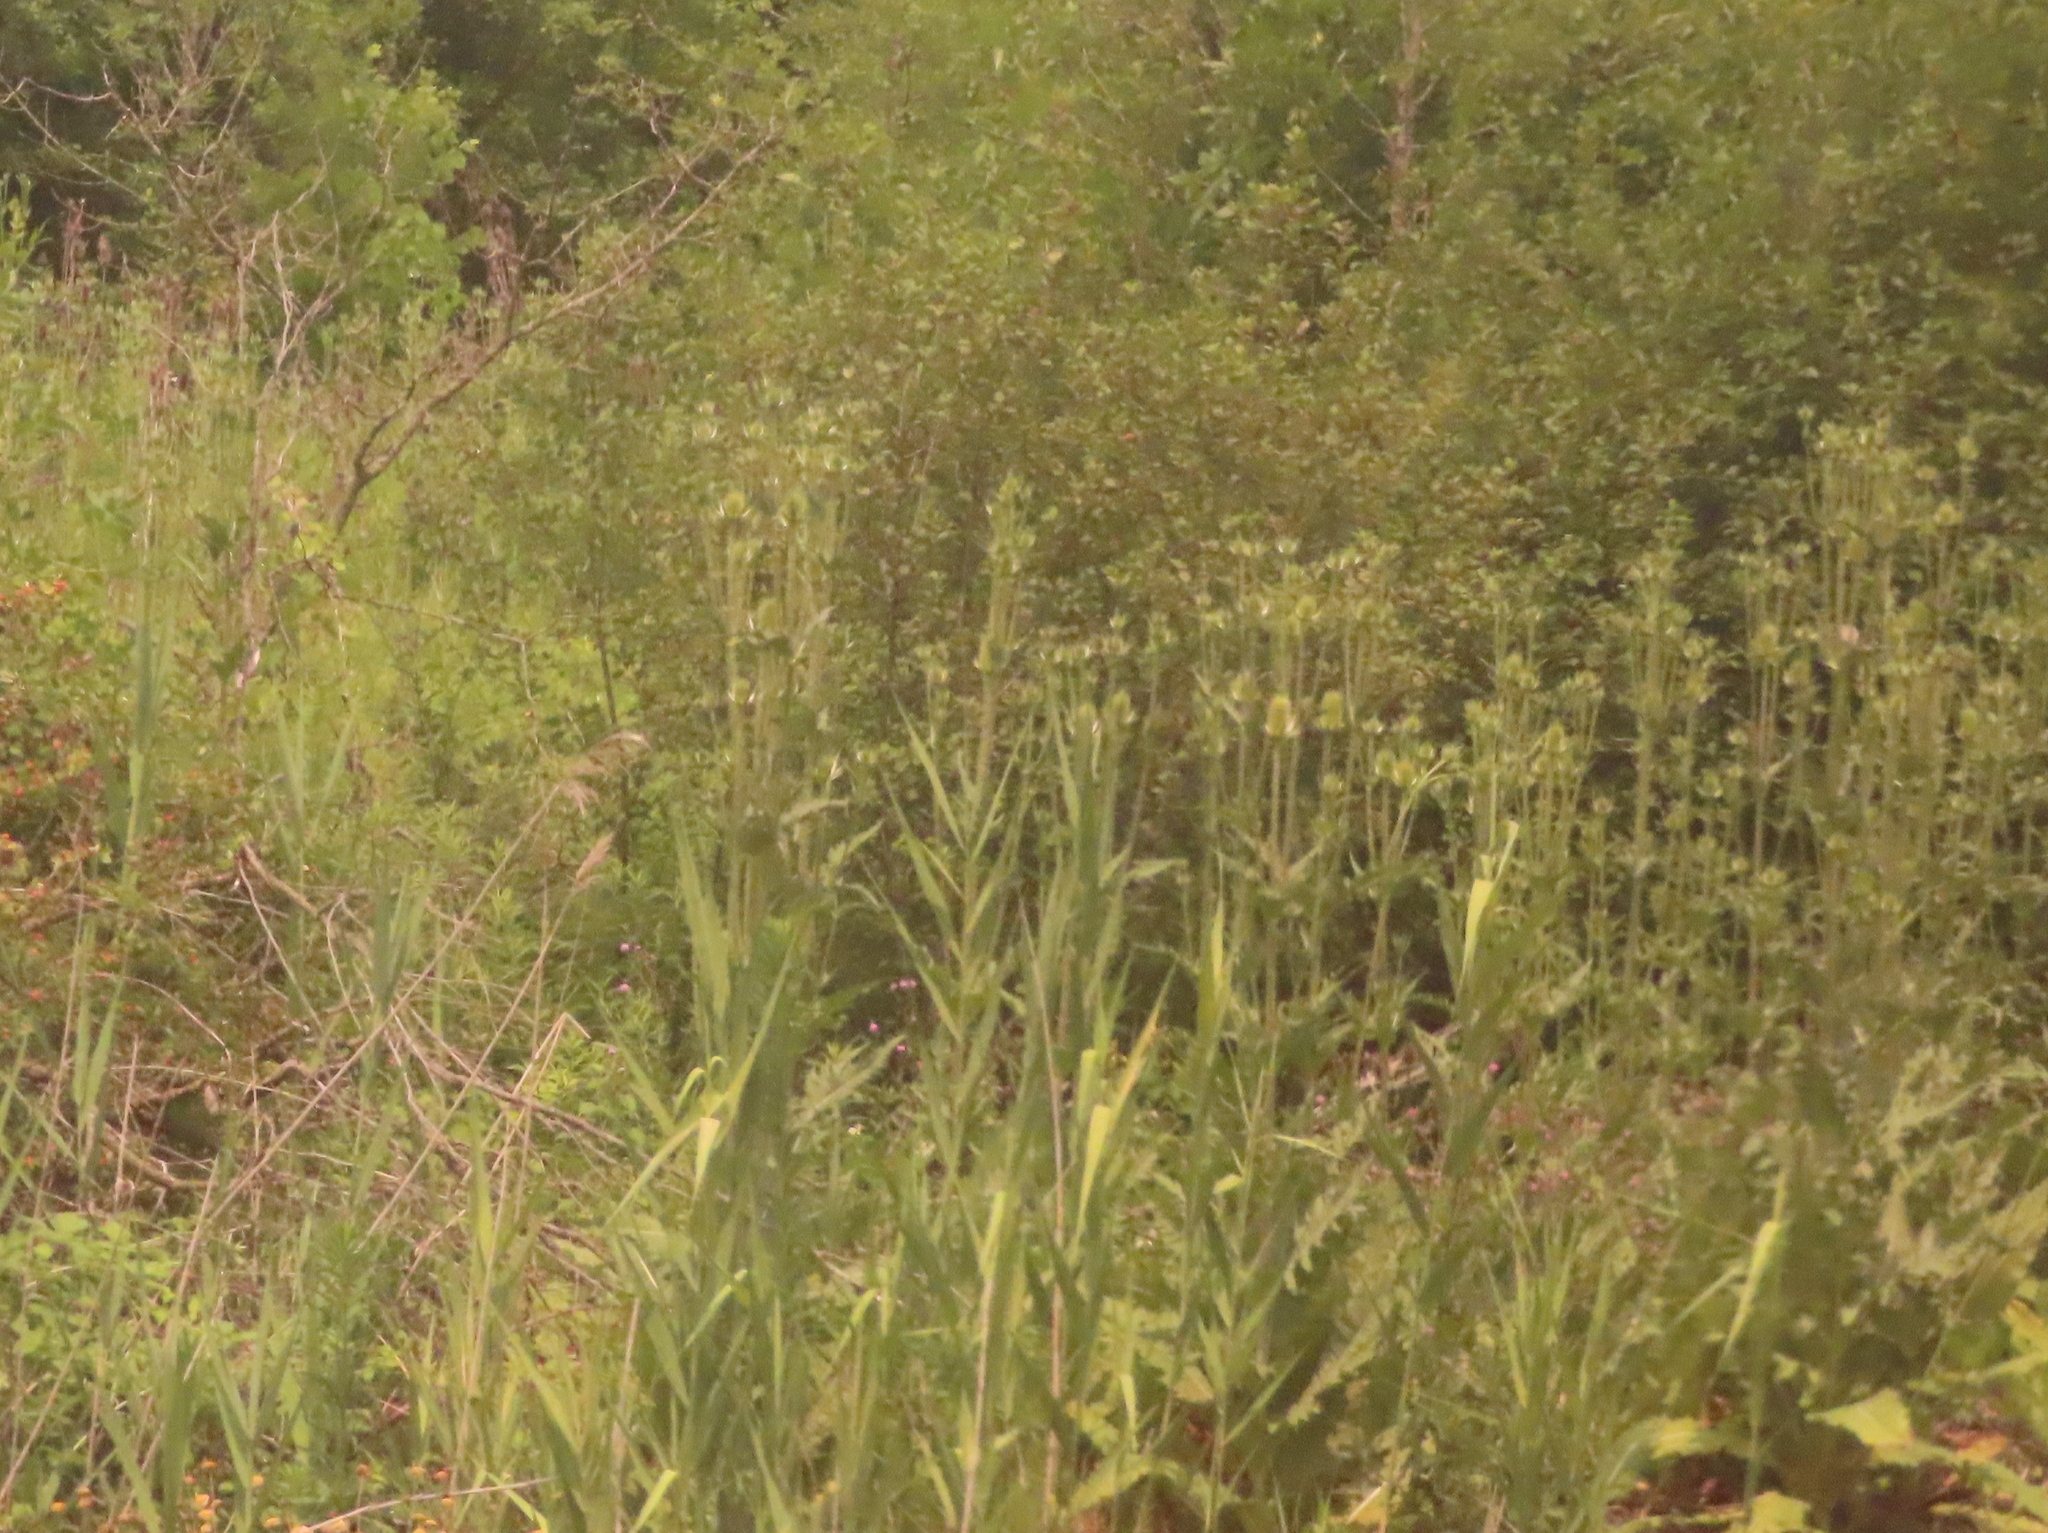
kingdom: Plantae
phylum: Tracheophyta
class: Magnoliopsida
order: Dipsacales
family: Caprifoliaceae
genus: Dipsacus
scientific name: Dipsacus laciniatus
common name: Cut-leaved teasel
